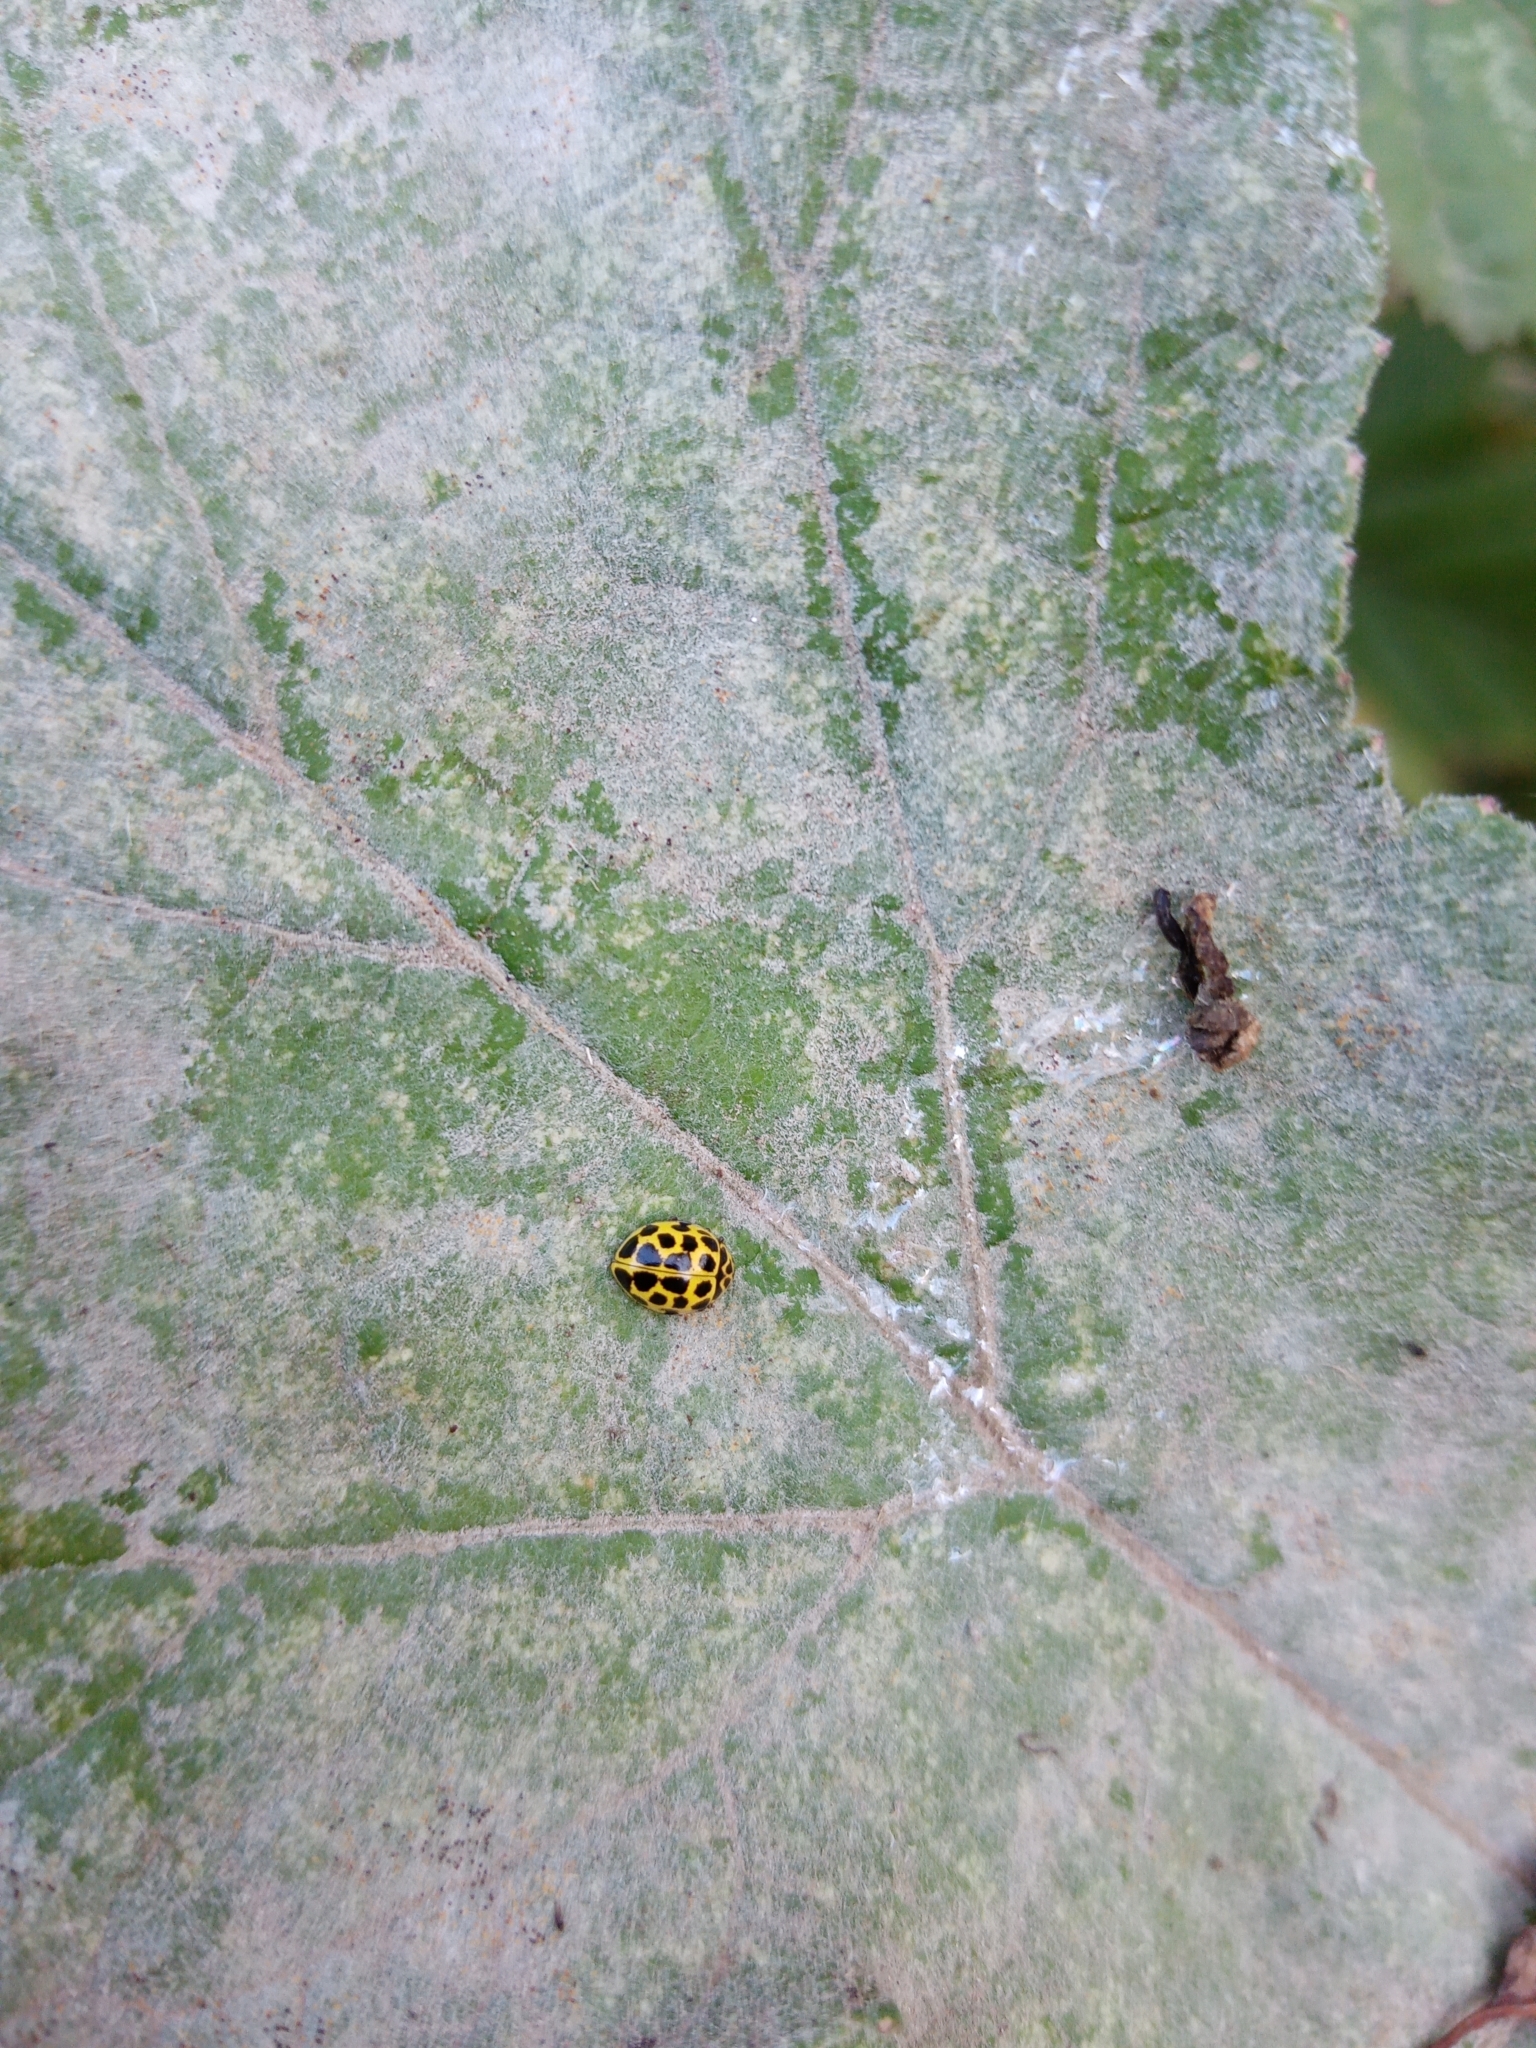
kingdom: Animalia
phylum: Arthropoda
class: Insecta
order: Coleoptera
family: Coccinellidae
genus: Psyllobora
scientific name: Psyllobora vigintiduopunctata
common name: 22-spot ladybird
